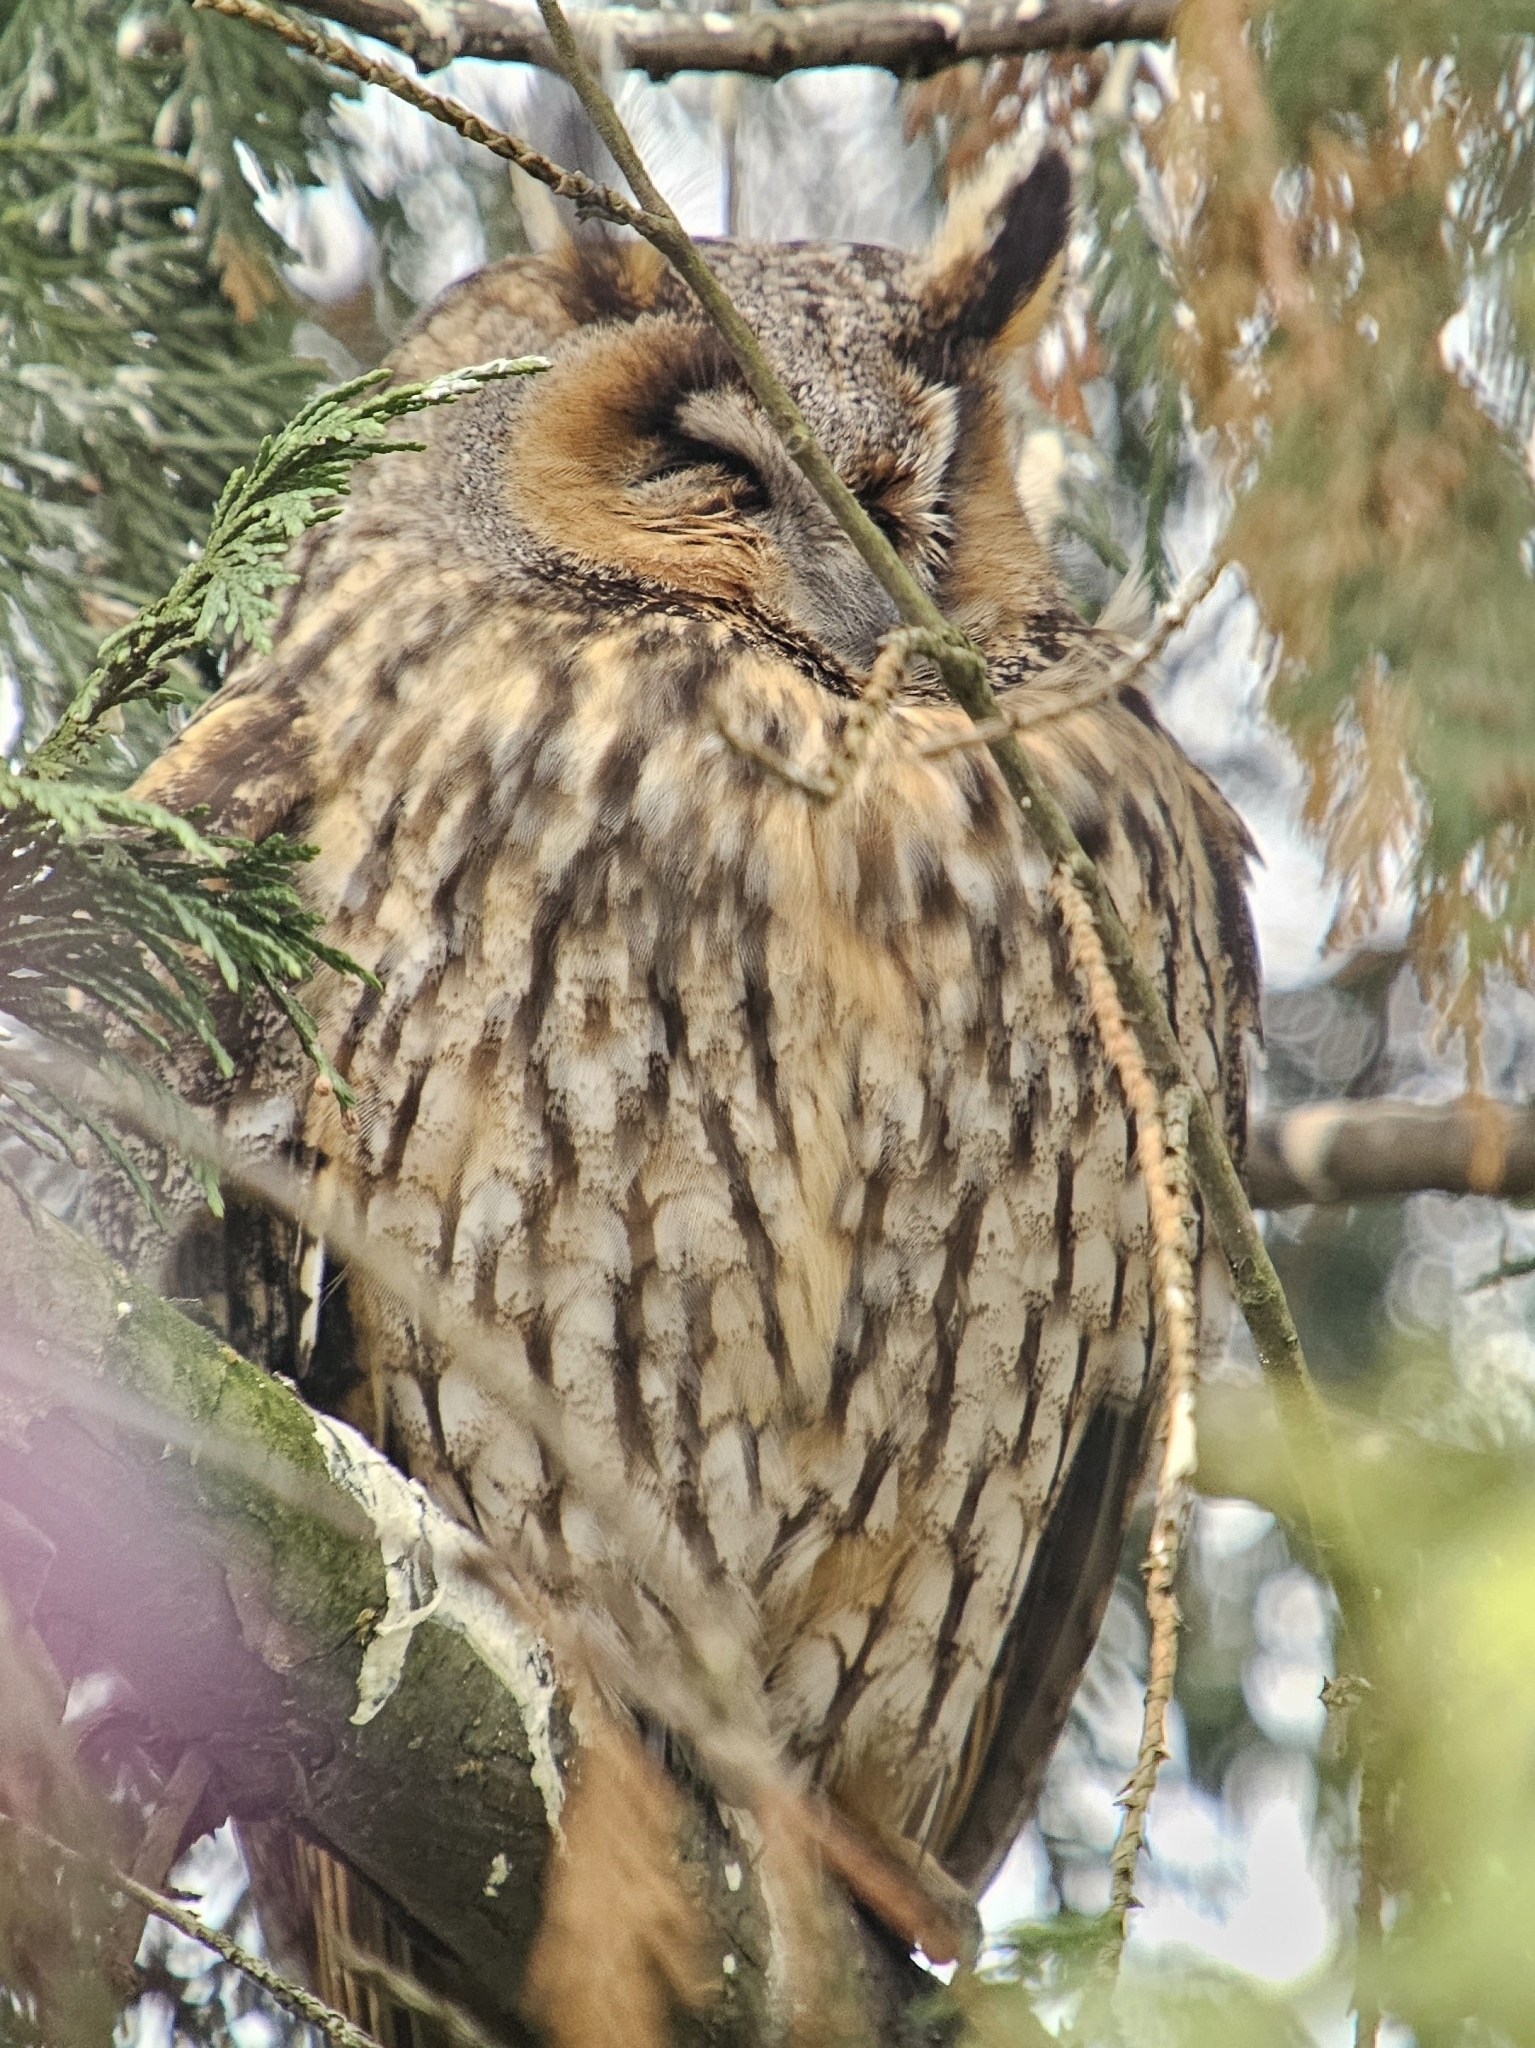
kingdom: Animalia
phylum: Chordata
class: Aves
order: Strigiformes
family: Strigidae
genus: Asio
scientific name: Asio otus
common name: Long-eared owl
